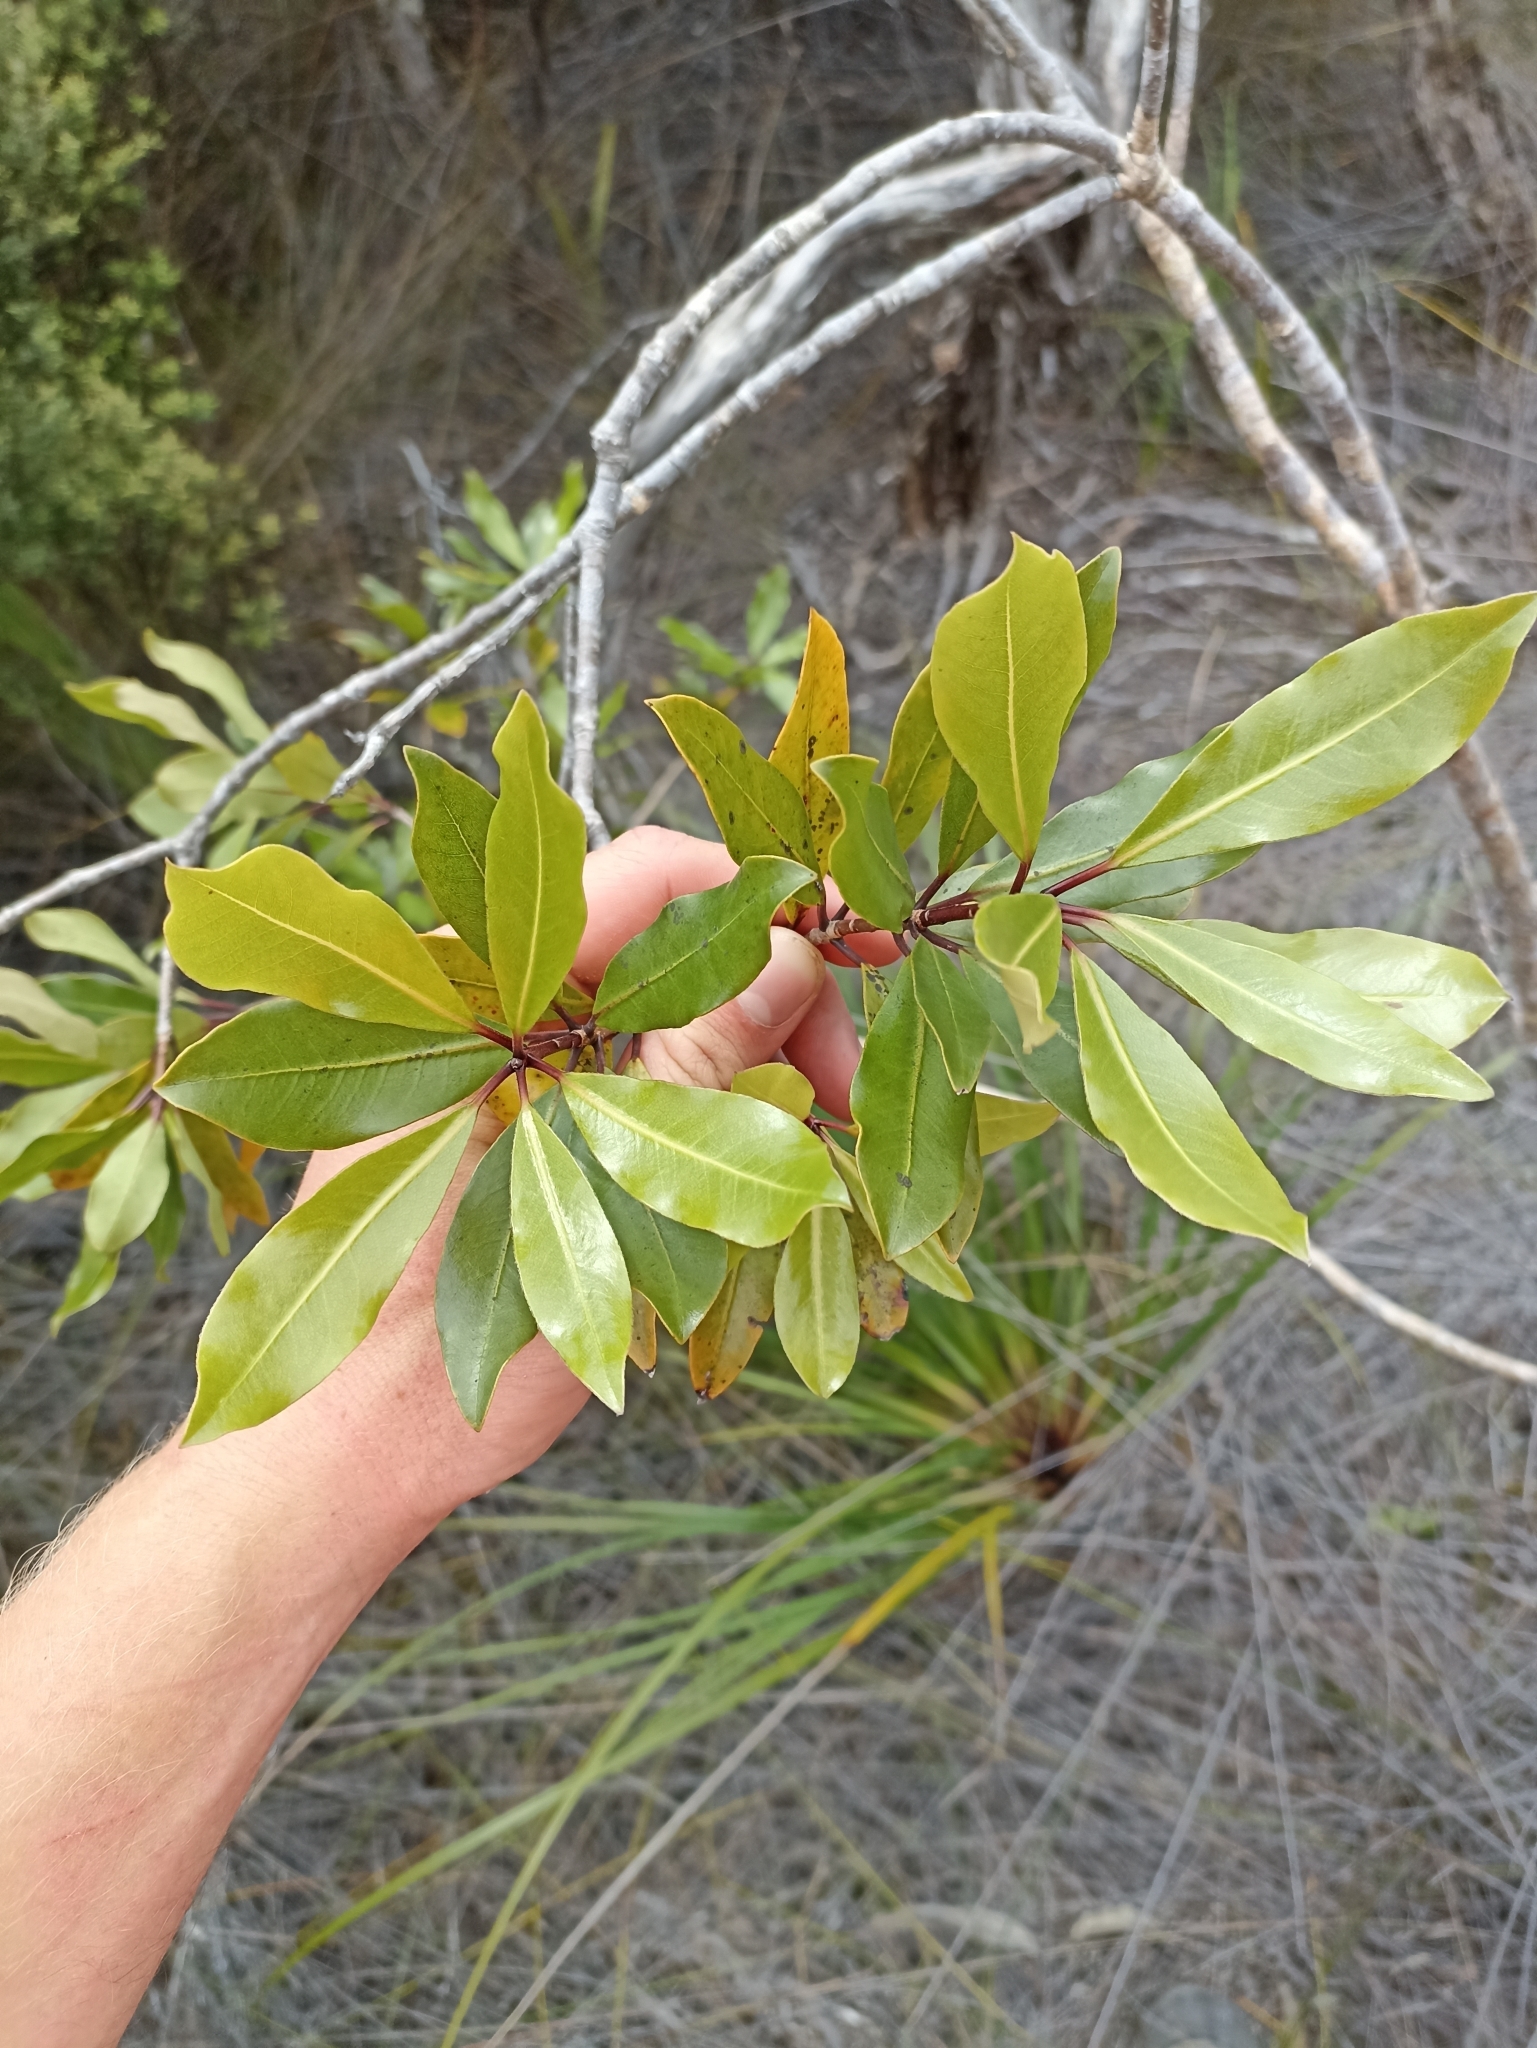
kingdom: Plantae
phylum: Tracheophyta
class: Magnoliopsida
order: Apiales
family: Pittosporaceae
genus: Pittosporum
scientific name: Pittosporum umbellatum
